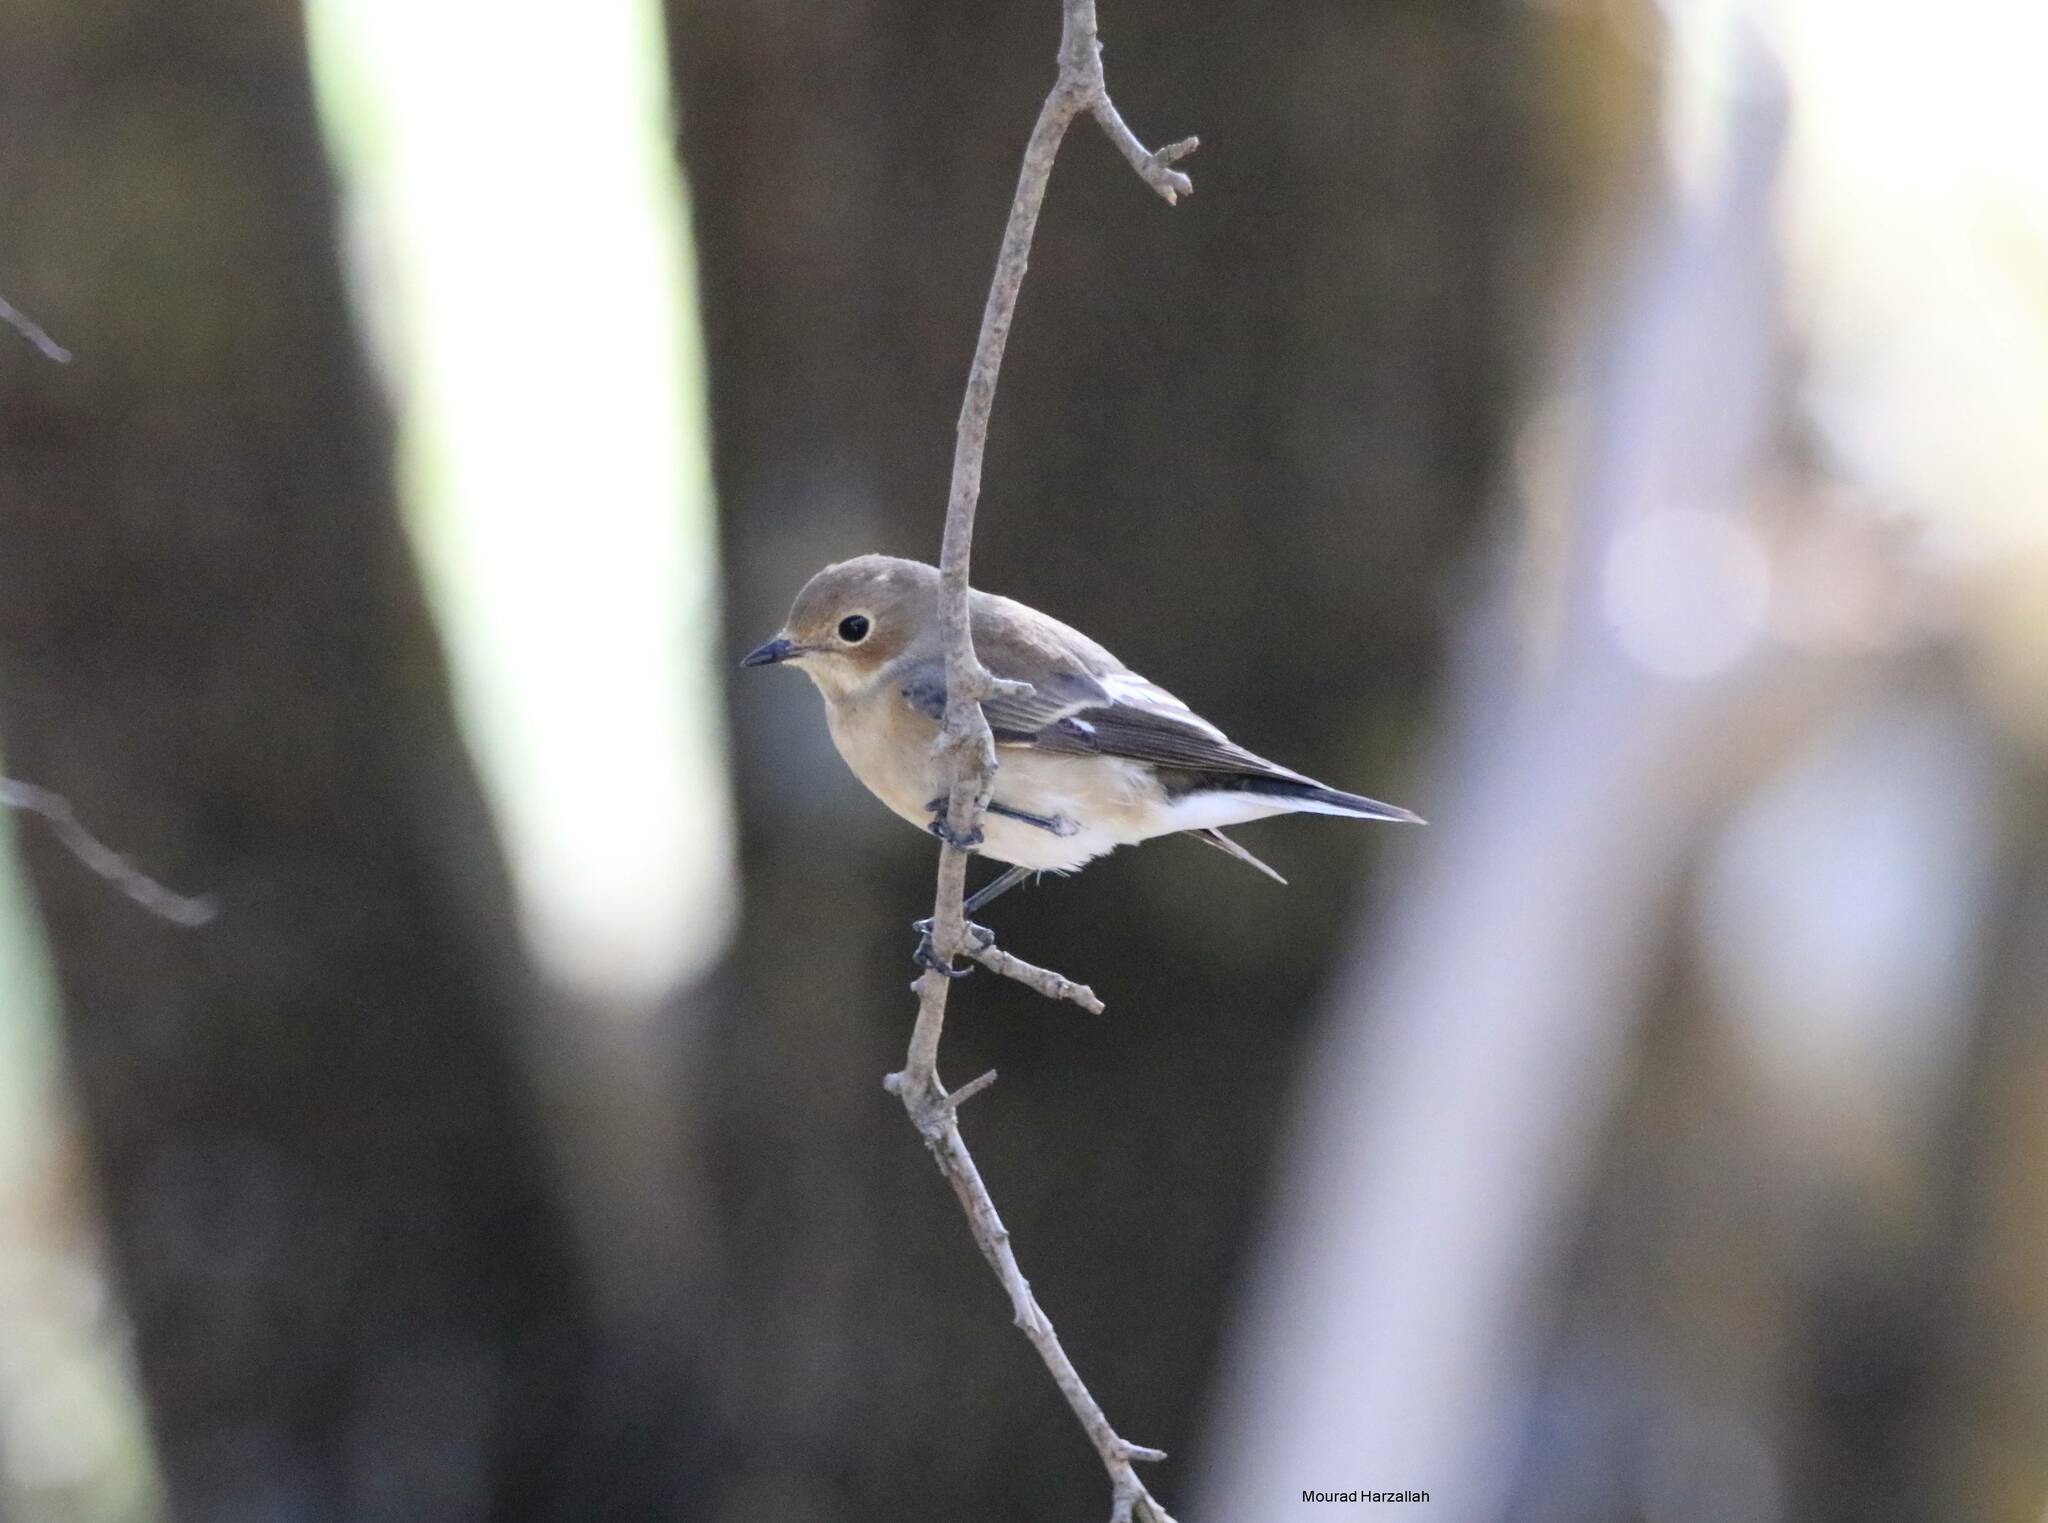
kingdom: Animalia
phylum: Chordata
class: Aves
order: Passeriformes
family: Muscicapidae
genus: Ficedula
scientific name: Ficedula speculigera
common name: Atlas pied flycatcher
